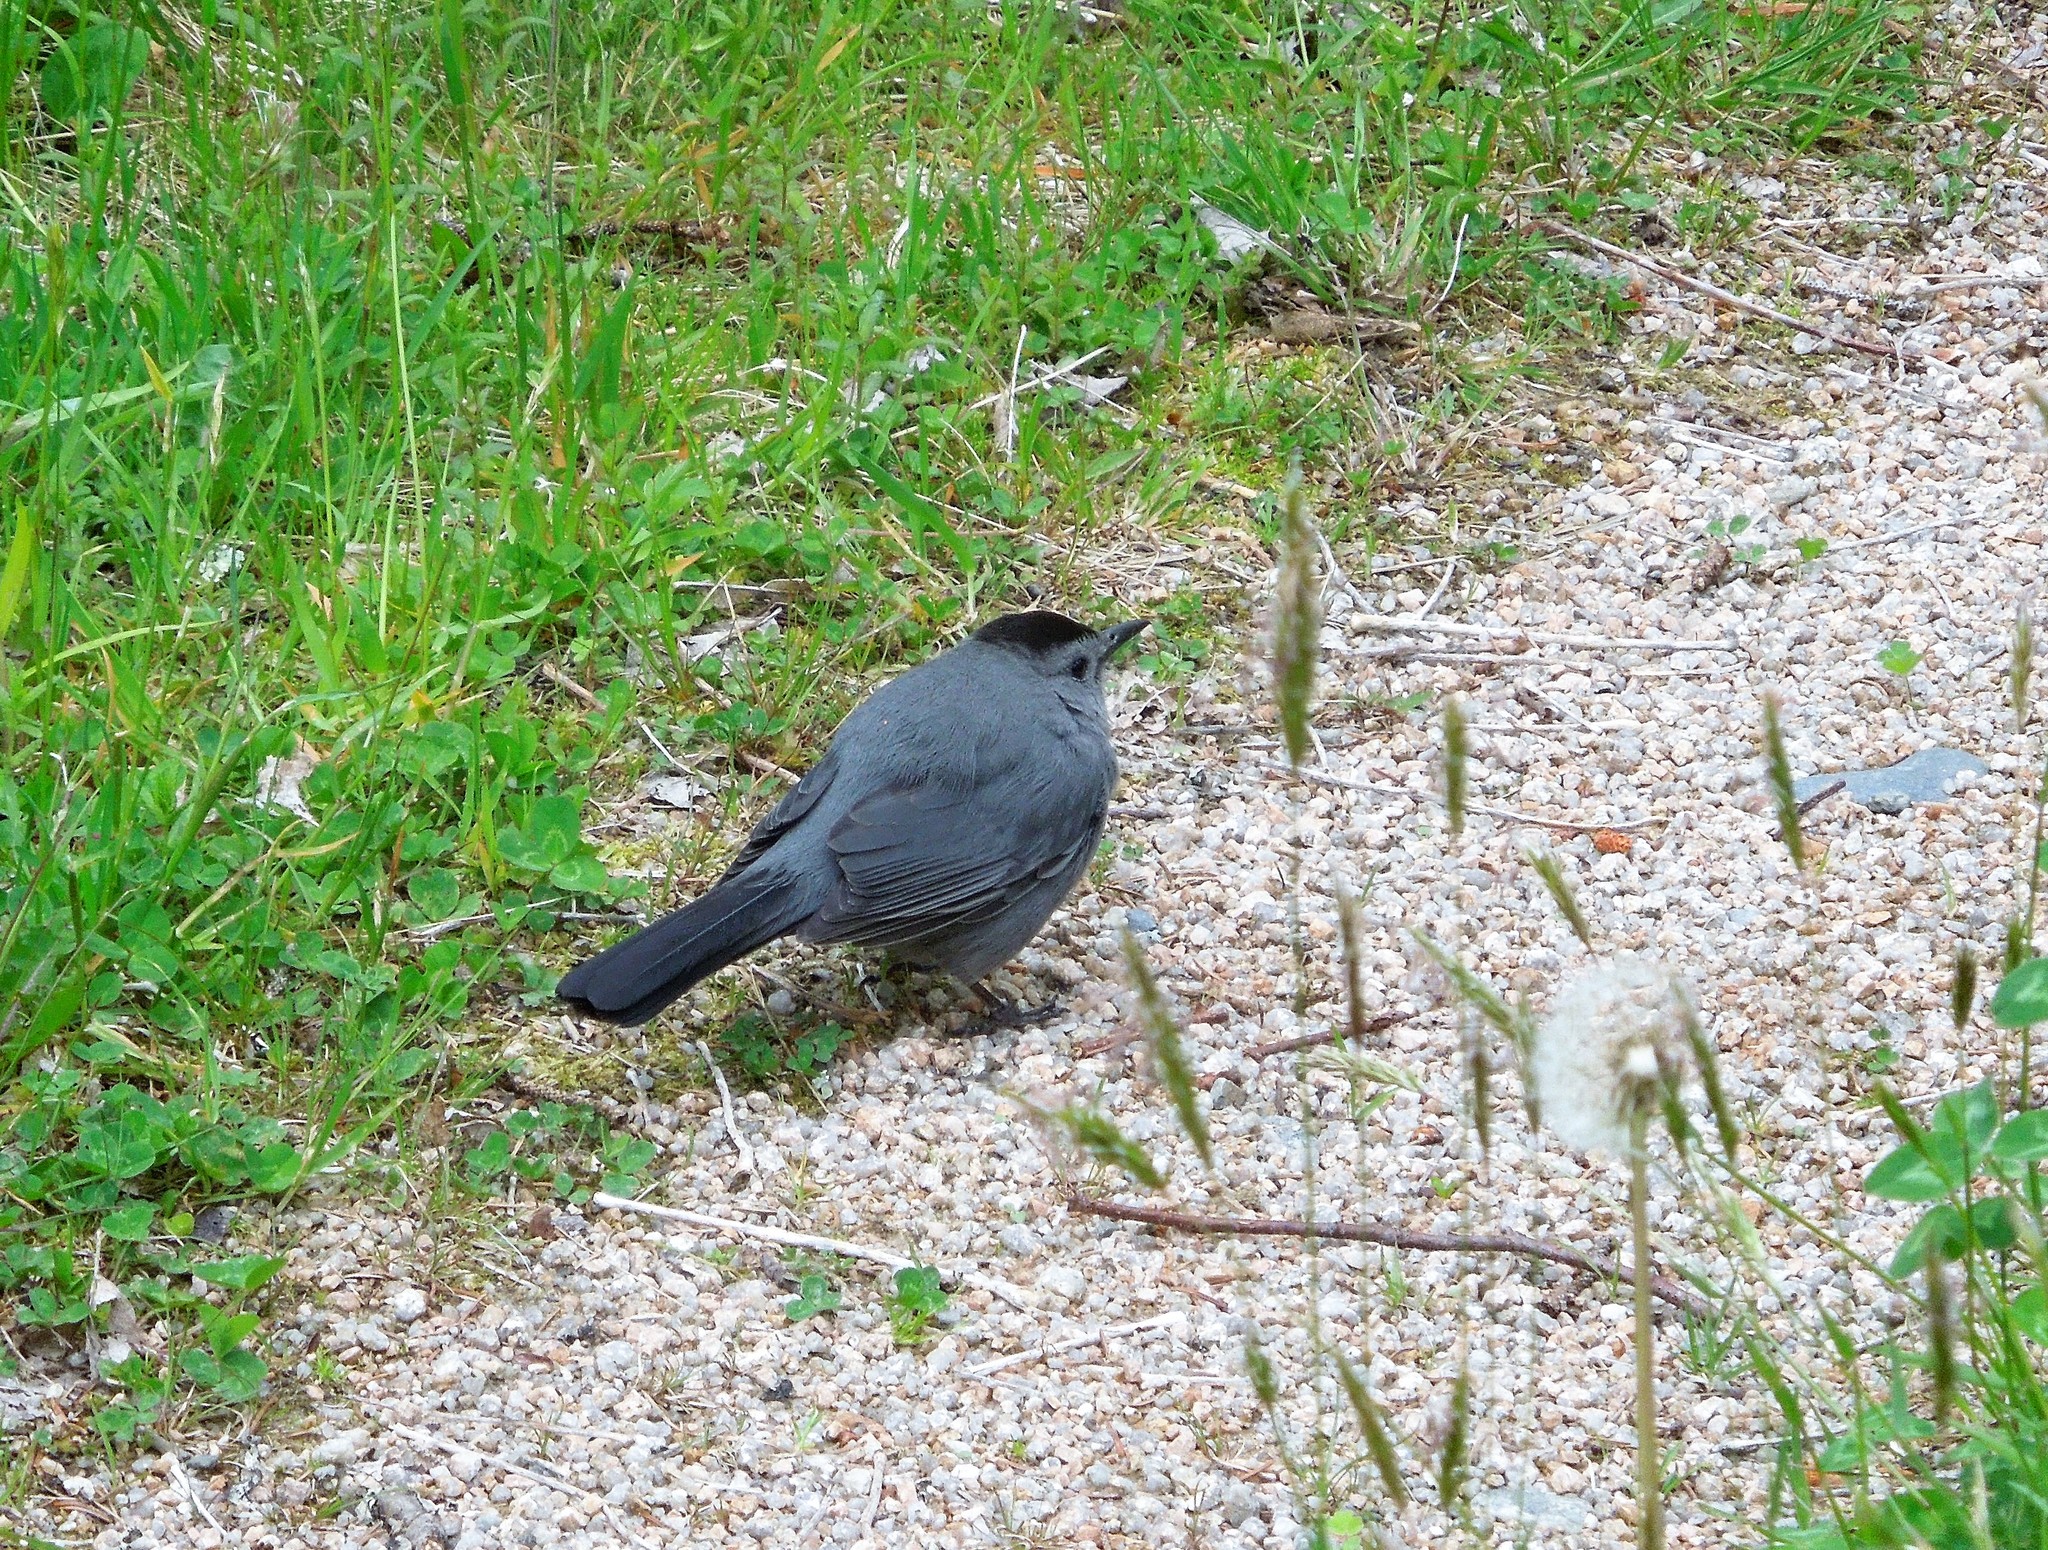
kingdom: Animalia
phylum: Chordata
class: Aves
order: Passeriformes
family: Mimidae
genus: Dumetella
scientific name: Dumetella carolinensis
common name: Gray catbird
